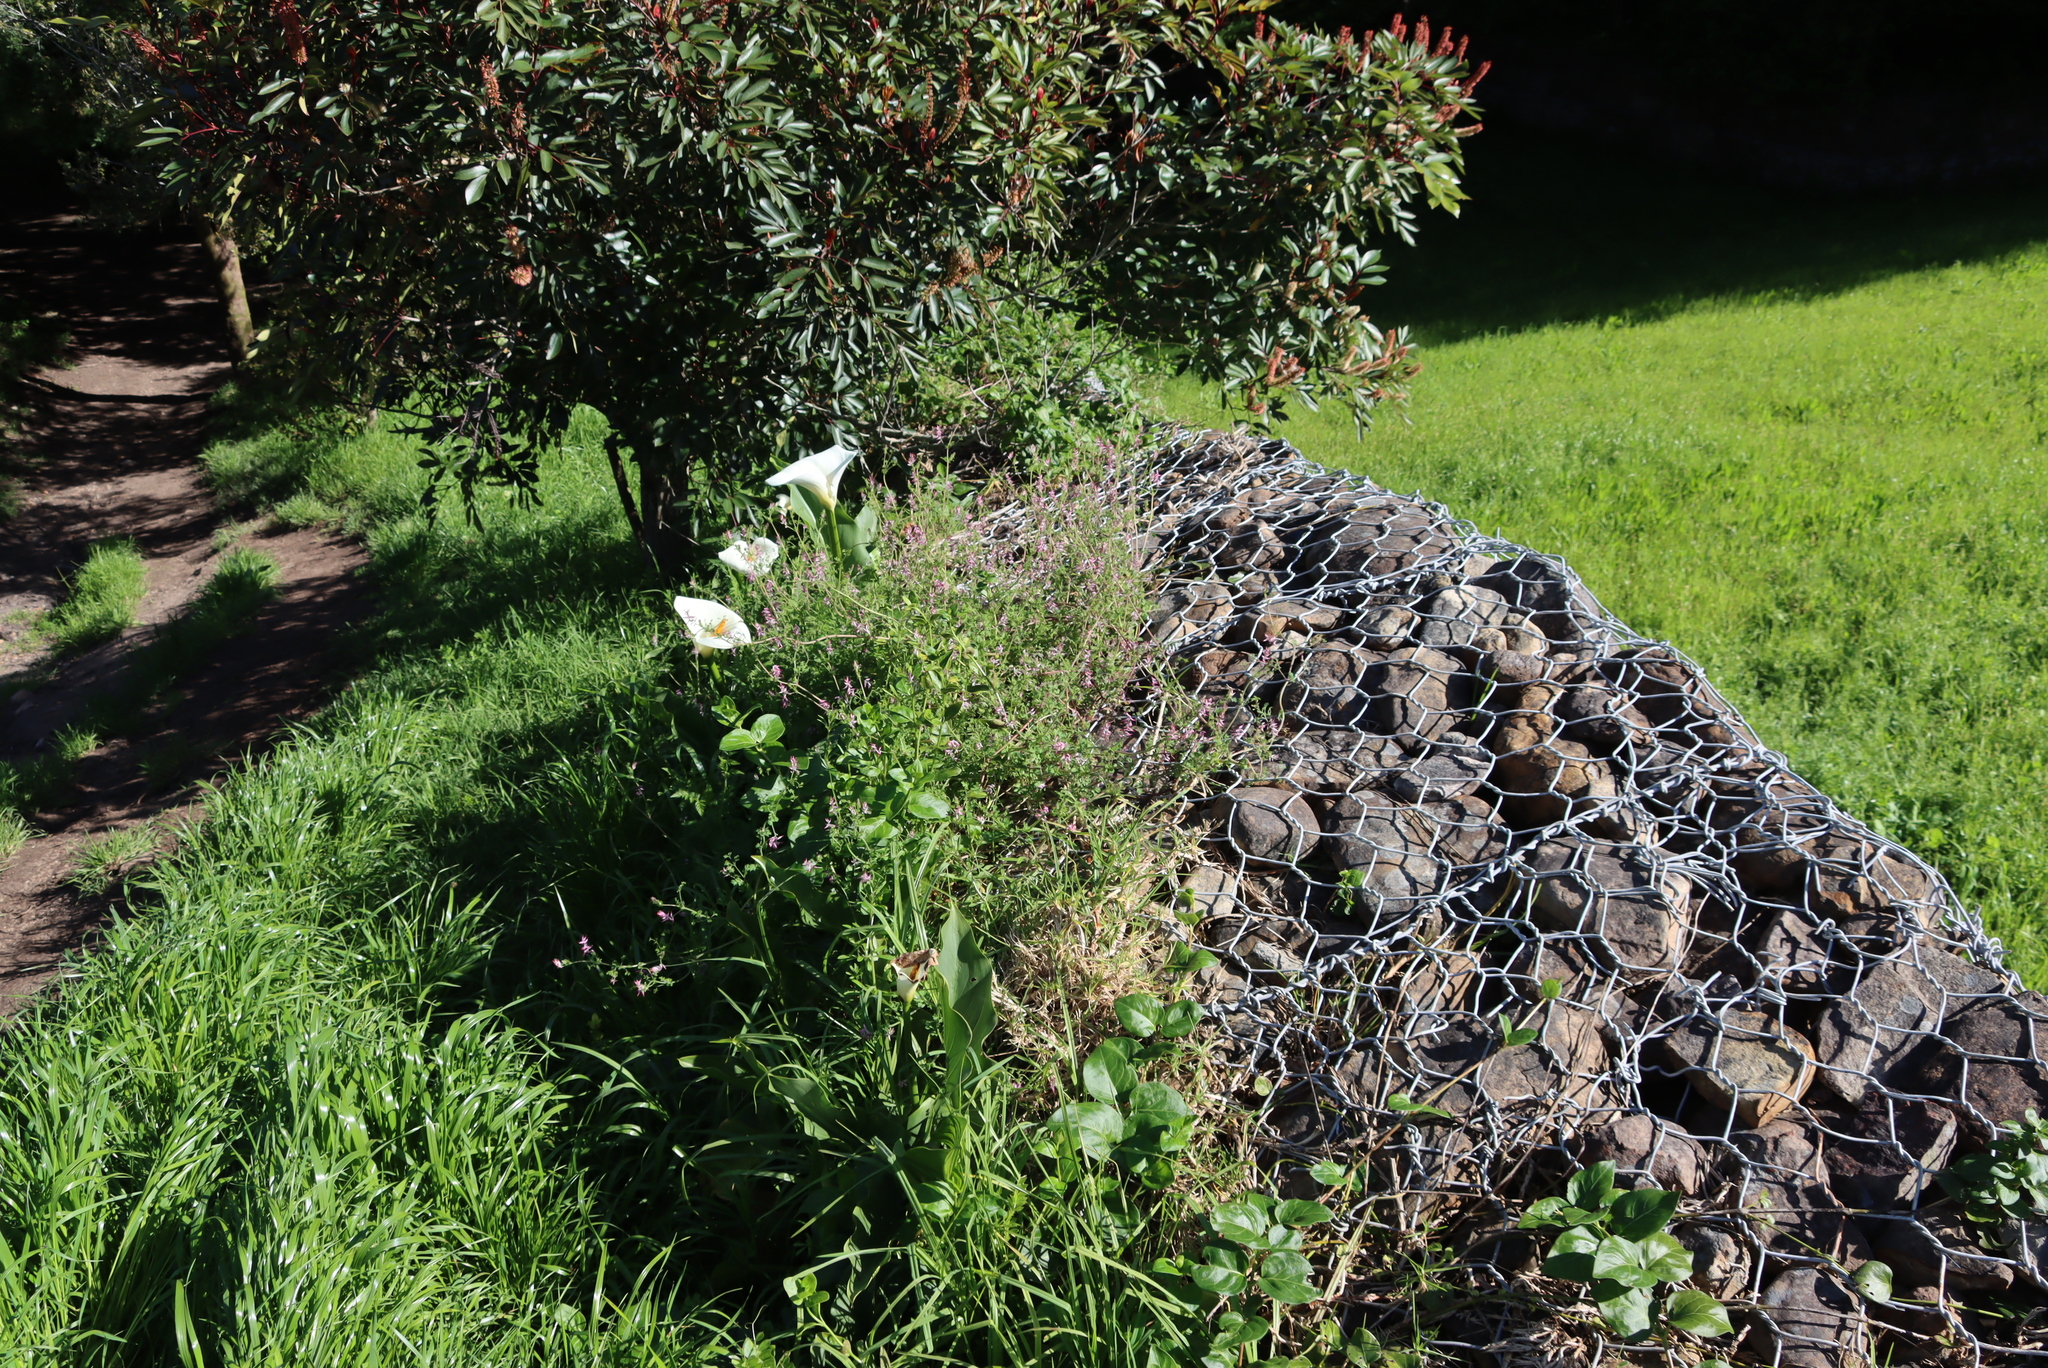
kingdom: Plantae
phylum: Tracheophyta
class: Liliopsida
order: Alismatales
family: Araceae
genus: Zantedeschia
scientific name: Zantedeschia aethiopica
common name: Altar-lily
